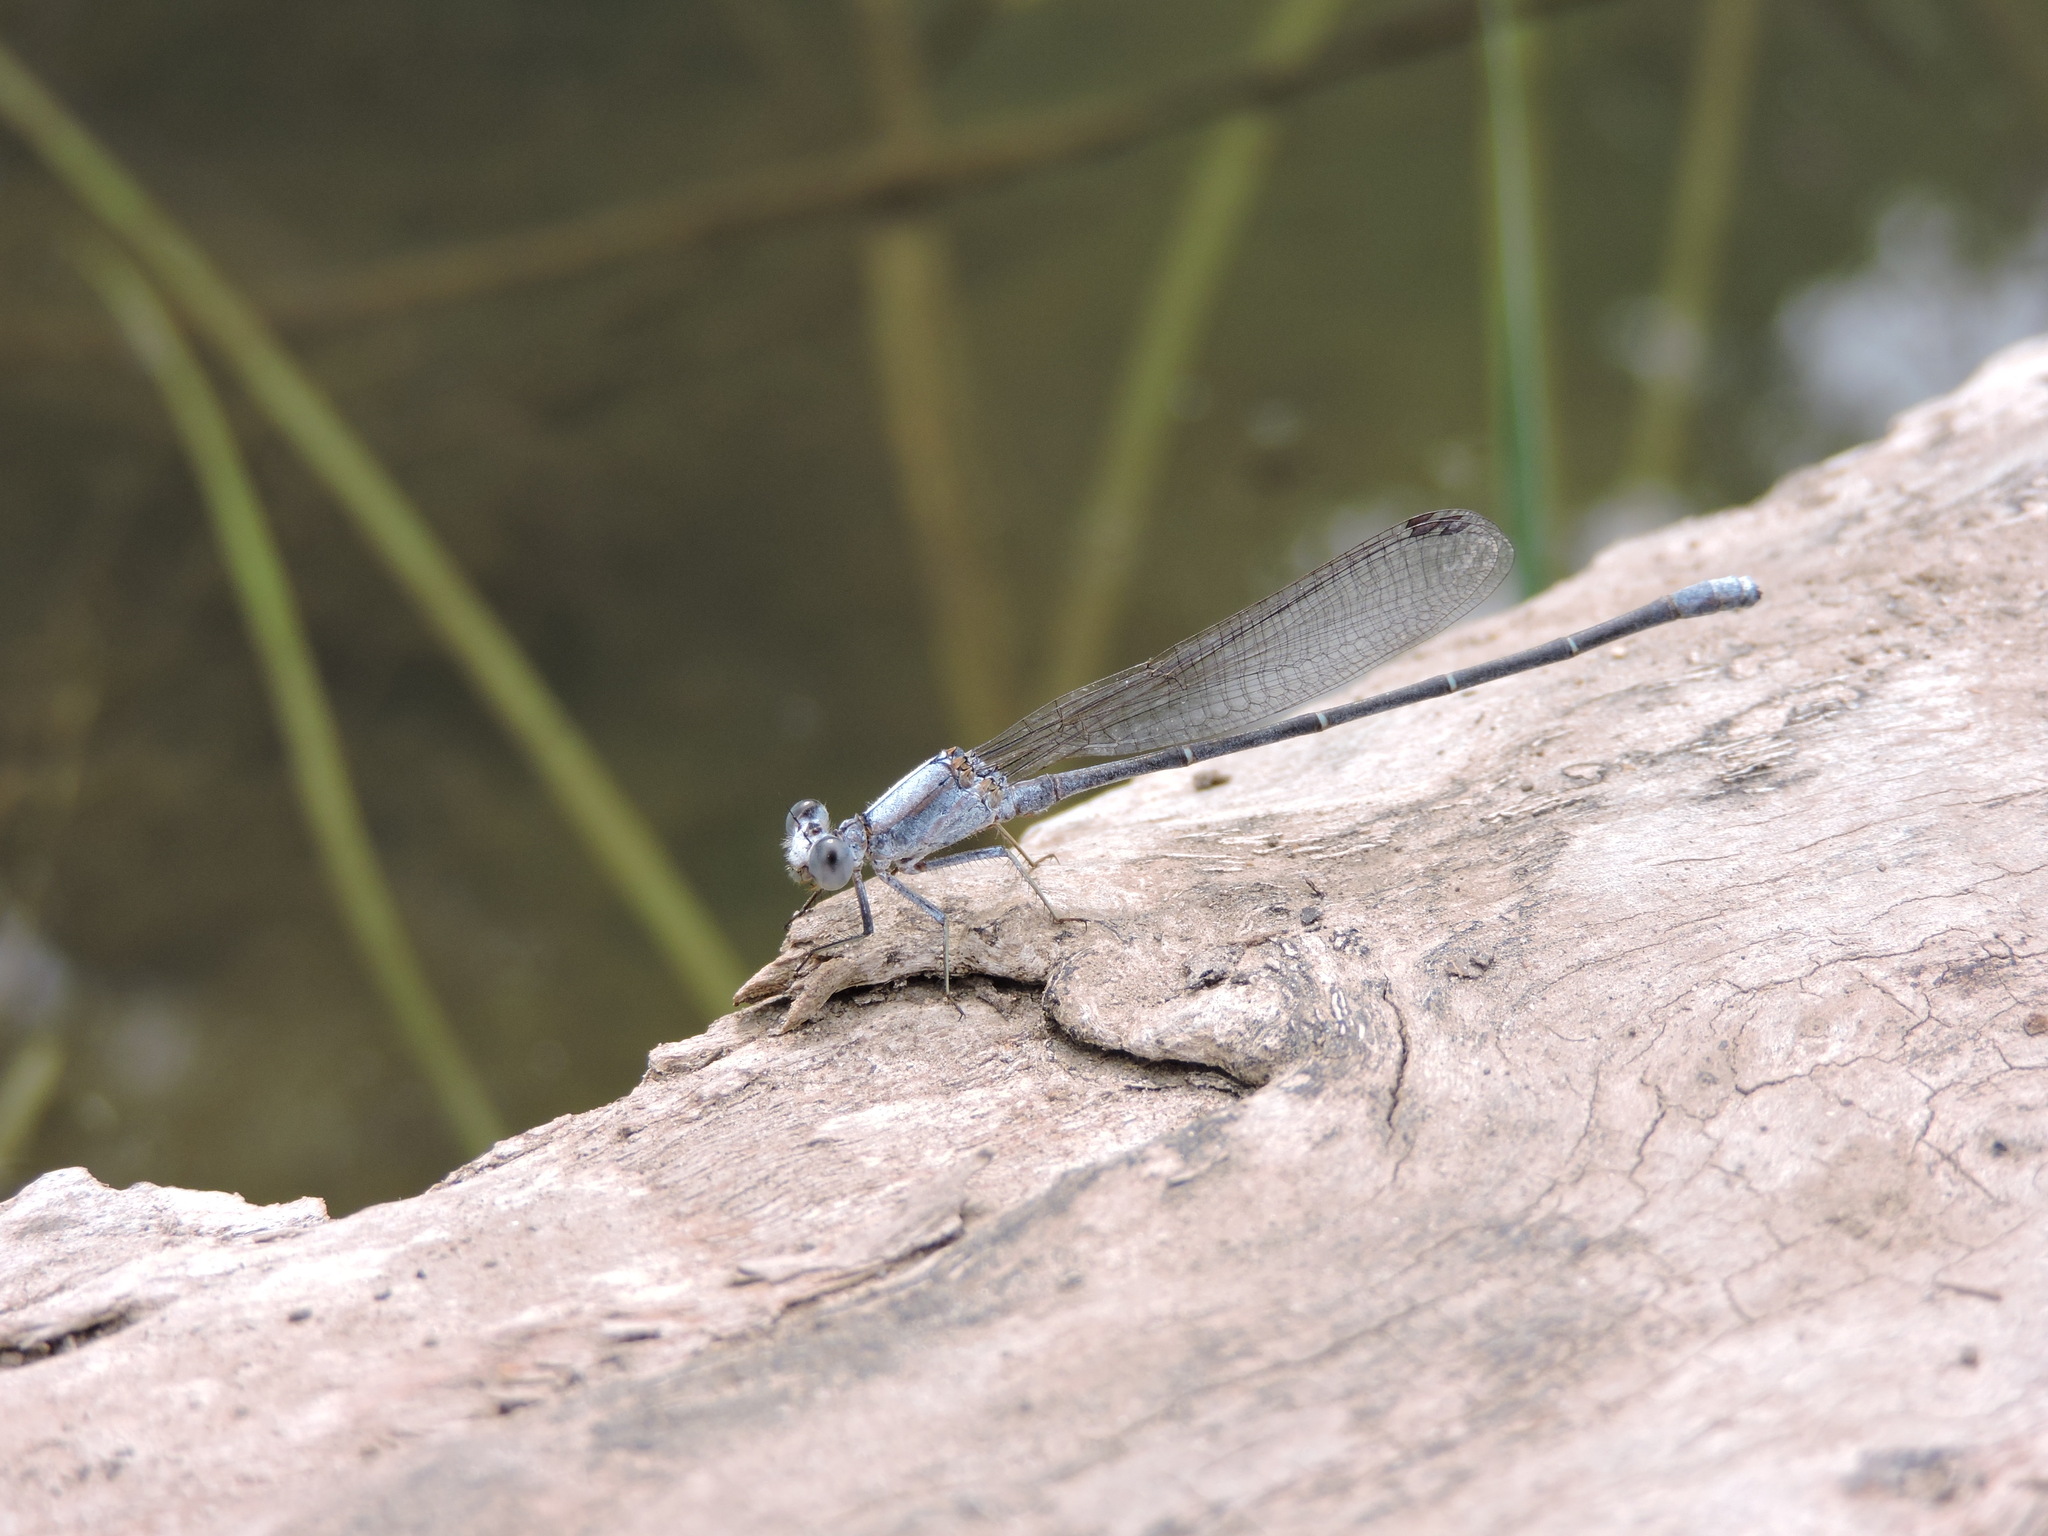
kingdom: Animalia
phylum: Arthropoda
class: Insecta
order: Odonata
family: Coenagrionidae
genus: Argia
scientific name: Argia moesta
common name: Powdered dancer
